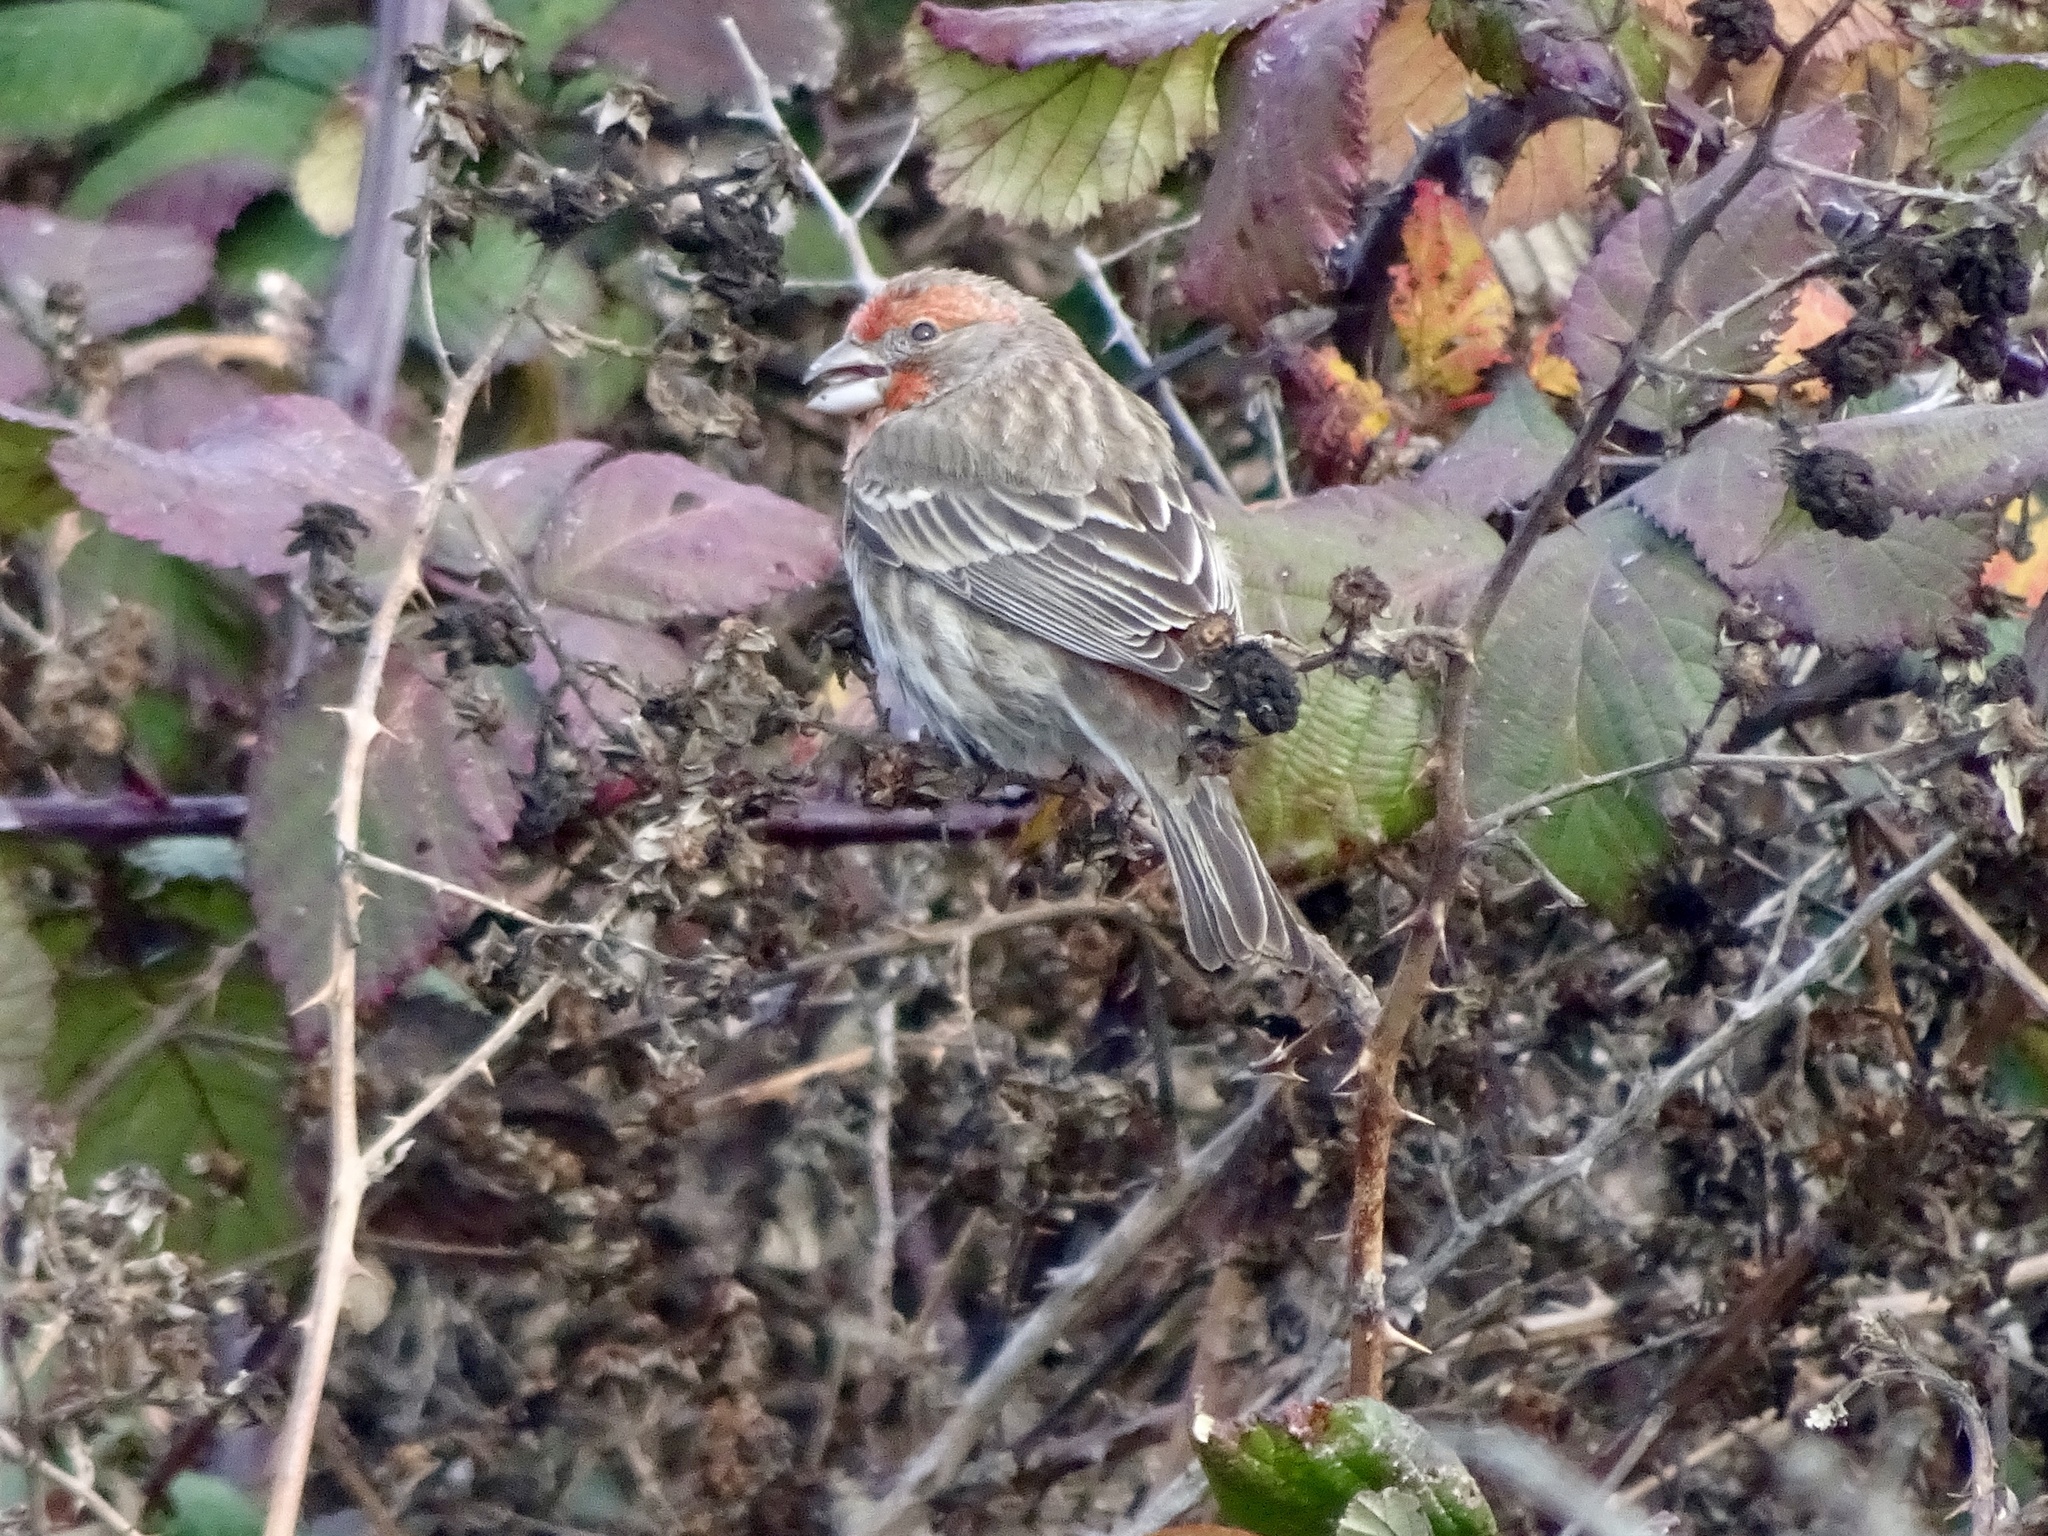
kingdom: Animalia
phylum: Chordata
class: Aves
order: Passeriformes
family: Fringillidae
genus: Haemorhous
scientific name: Haemorhous mexicanus
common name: House finch
